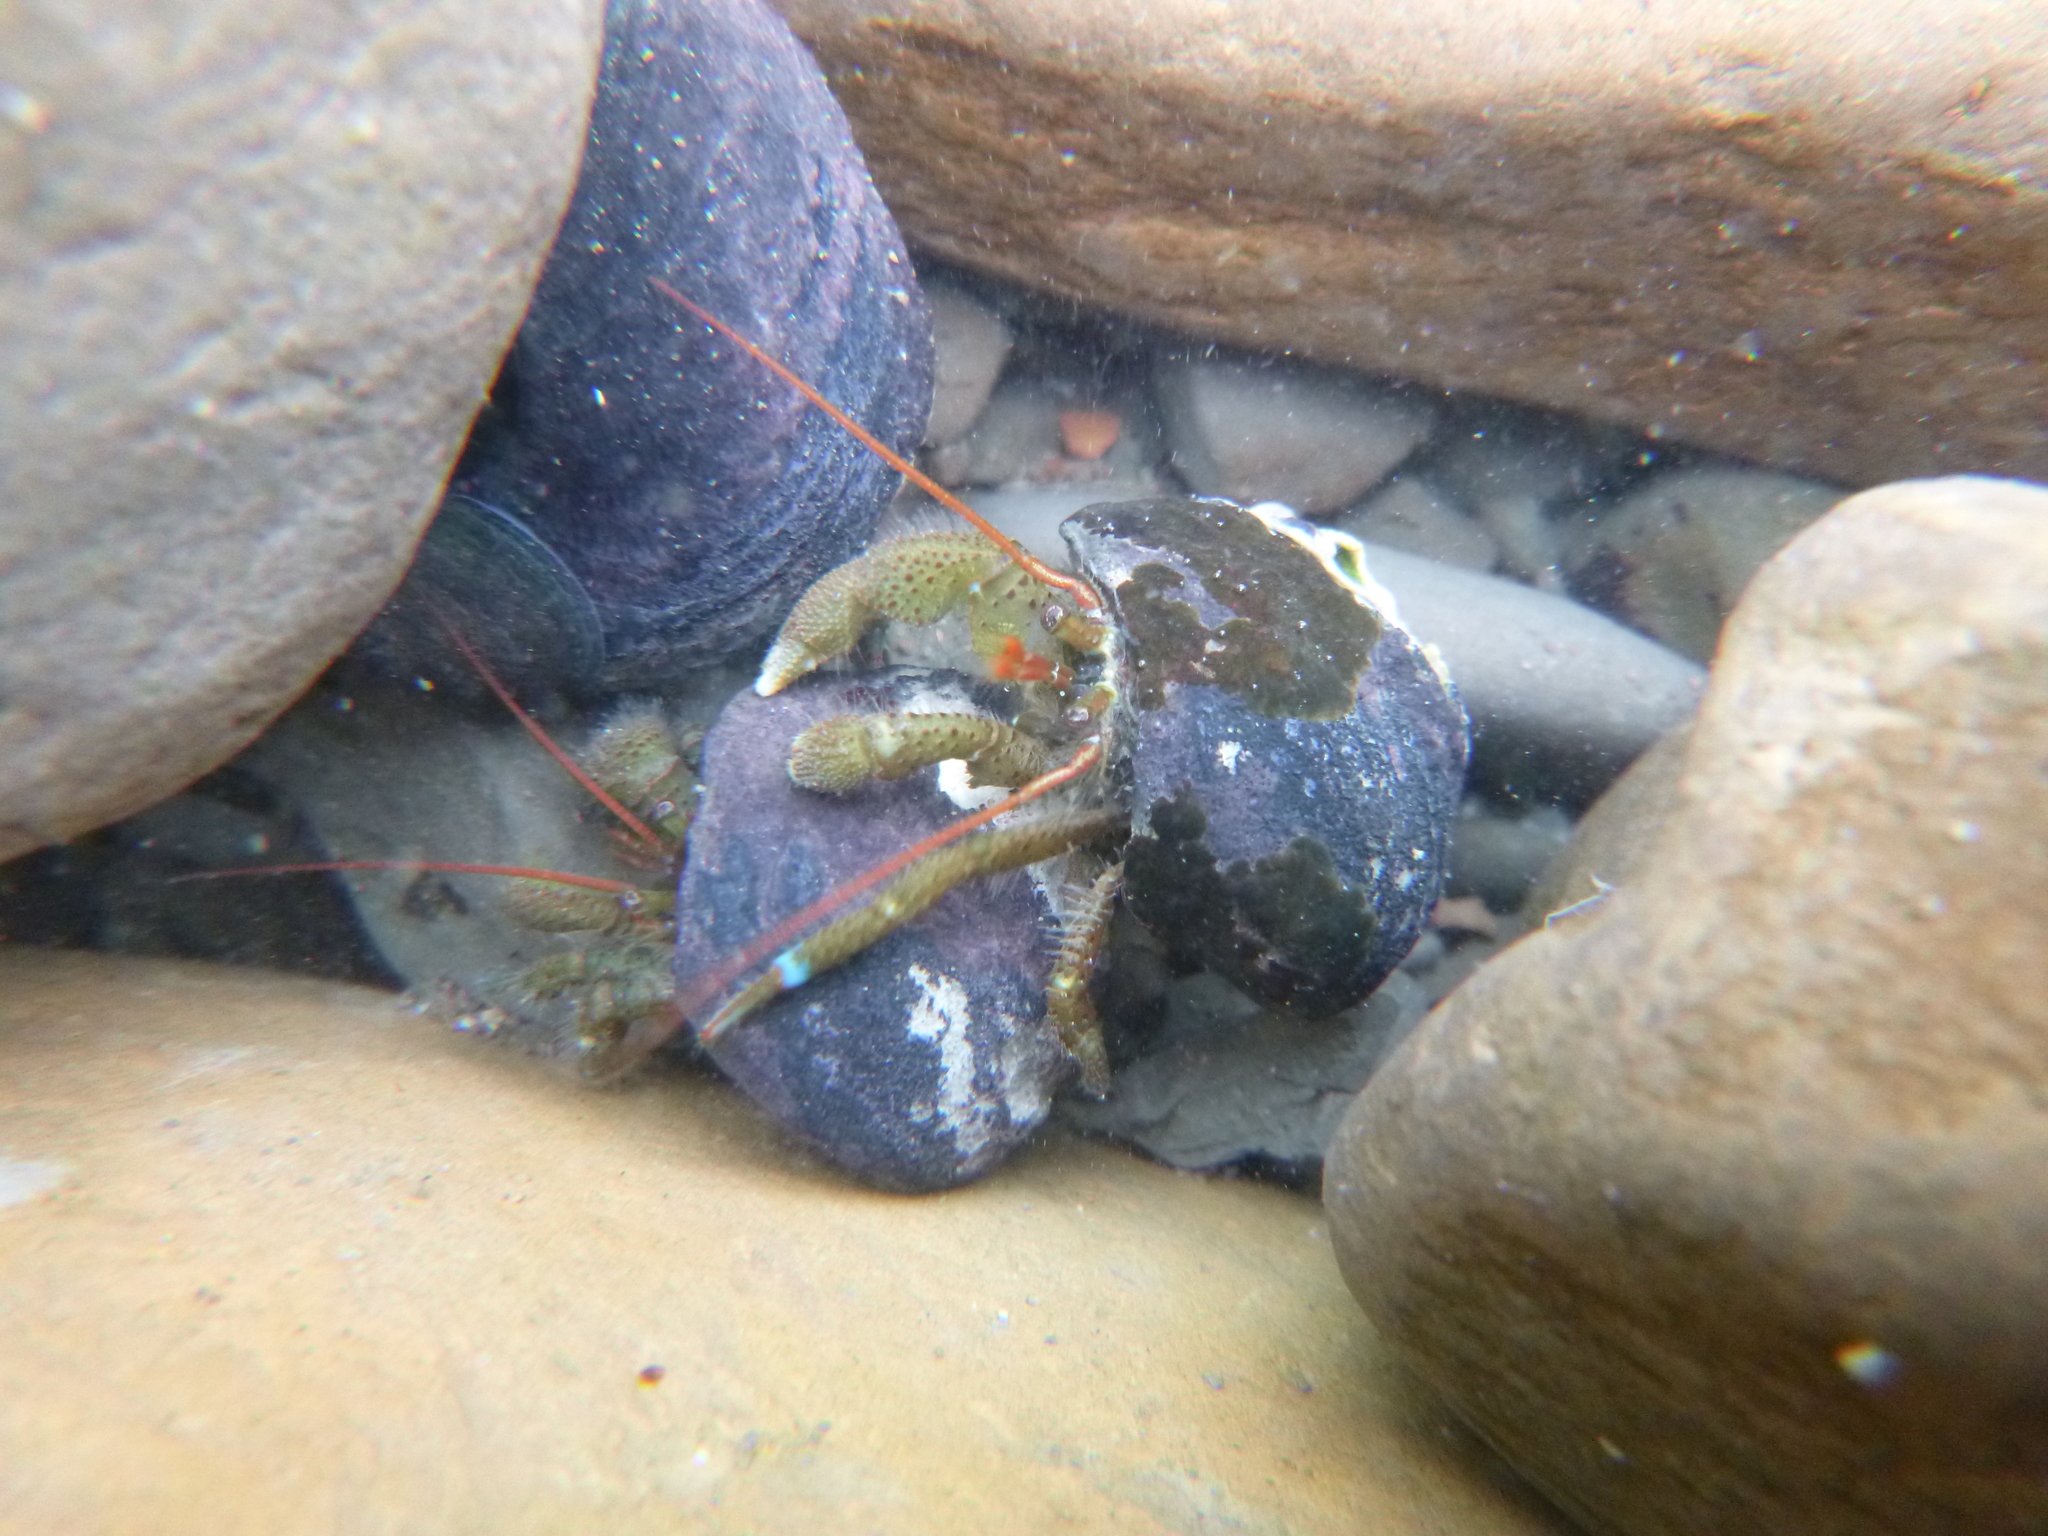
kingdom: Animalia
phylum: Arthropoda
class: Malacostraca
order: Decapoda
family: Paguridae
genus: Pagurus
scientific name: Pagurus samuelis
